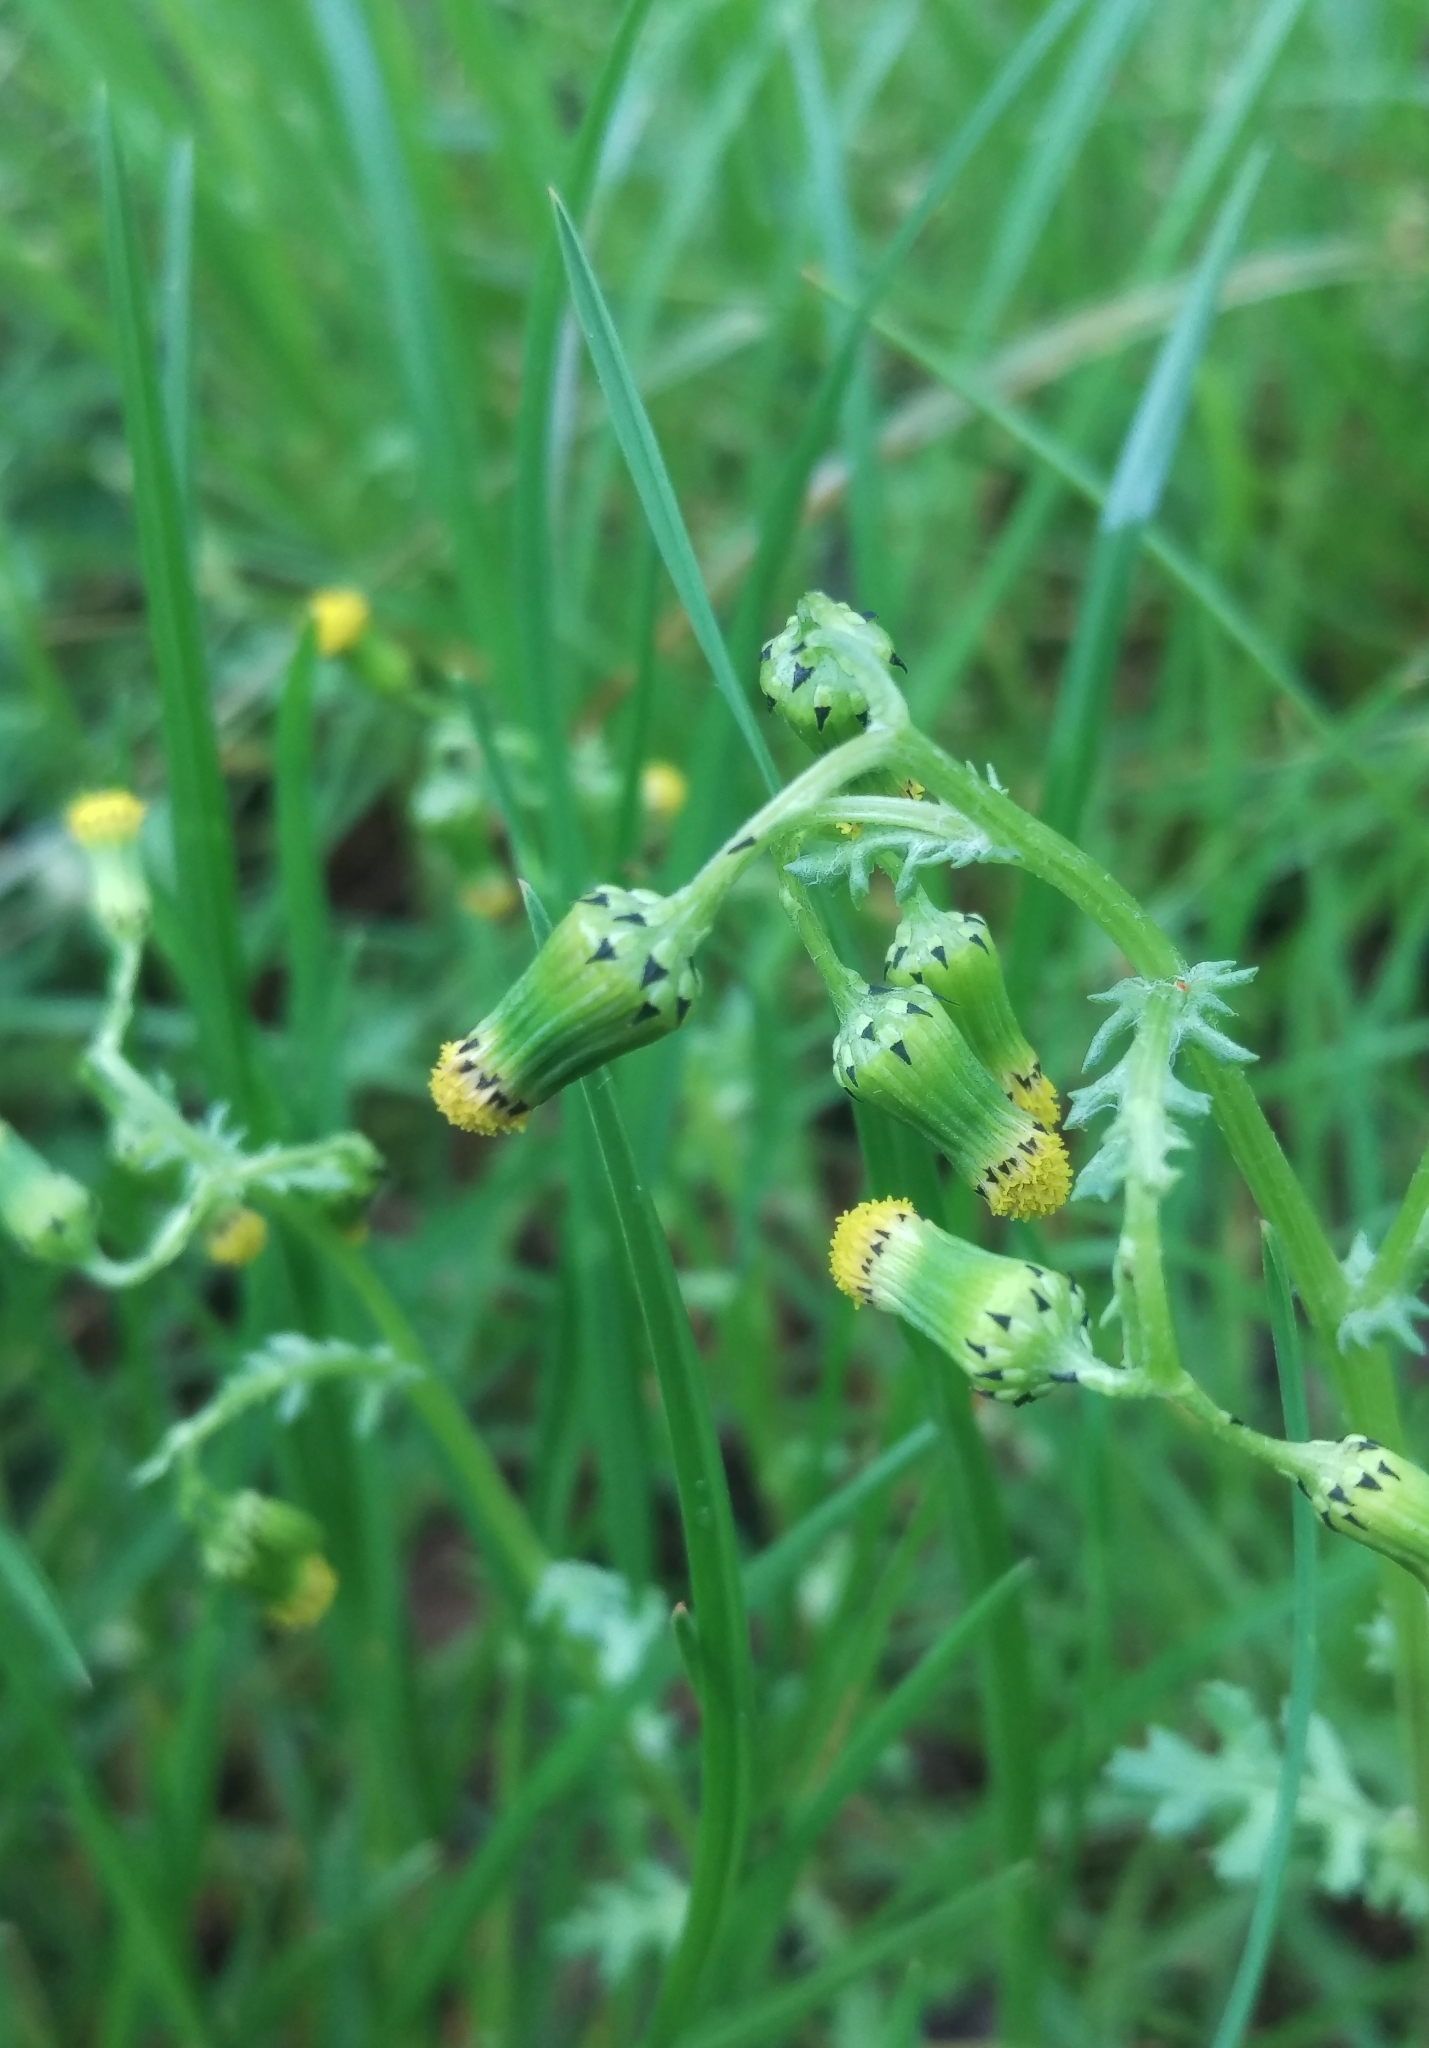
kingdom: Plantae
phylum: Tracheophyta
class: Magnoliopsida
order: Asterales
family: Asteraceae
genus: Senecio
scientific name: Senecio vulgaris
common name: Old-man-in-the-spring
